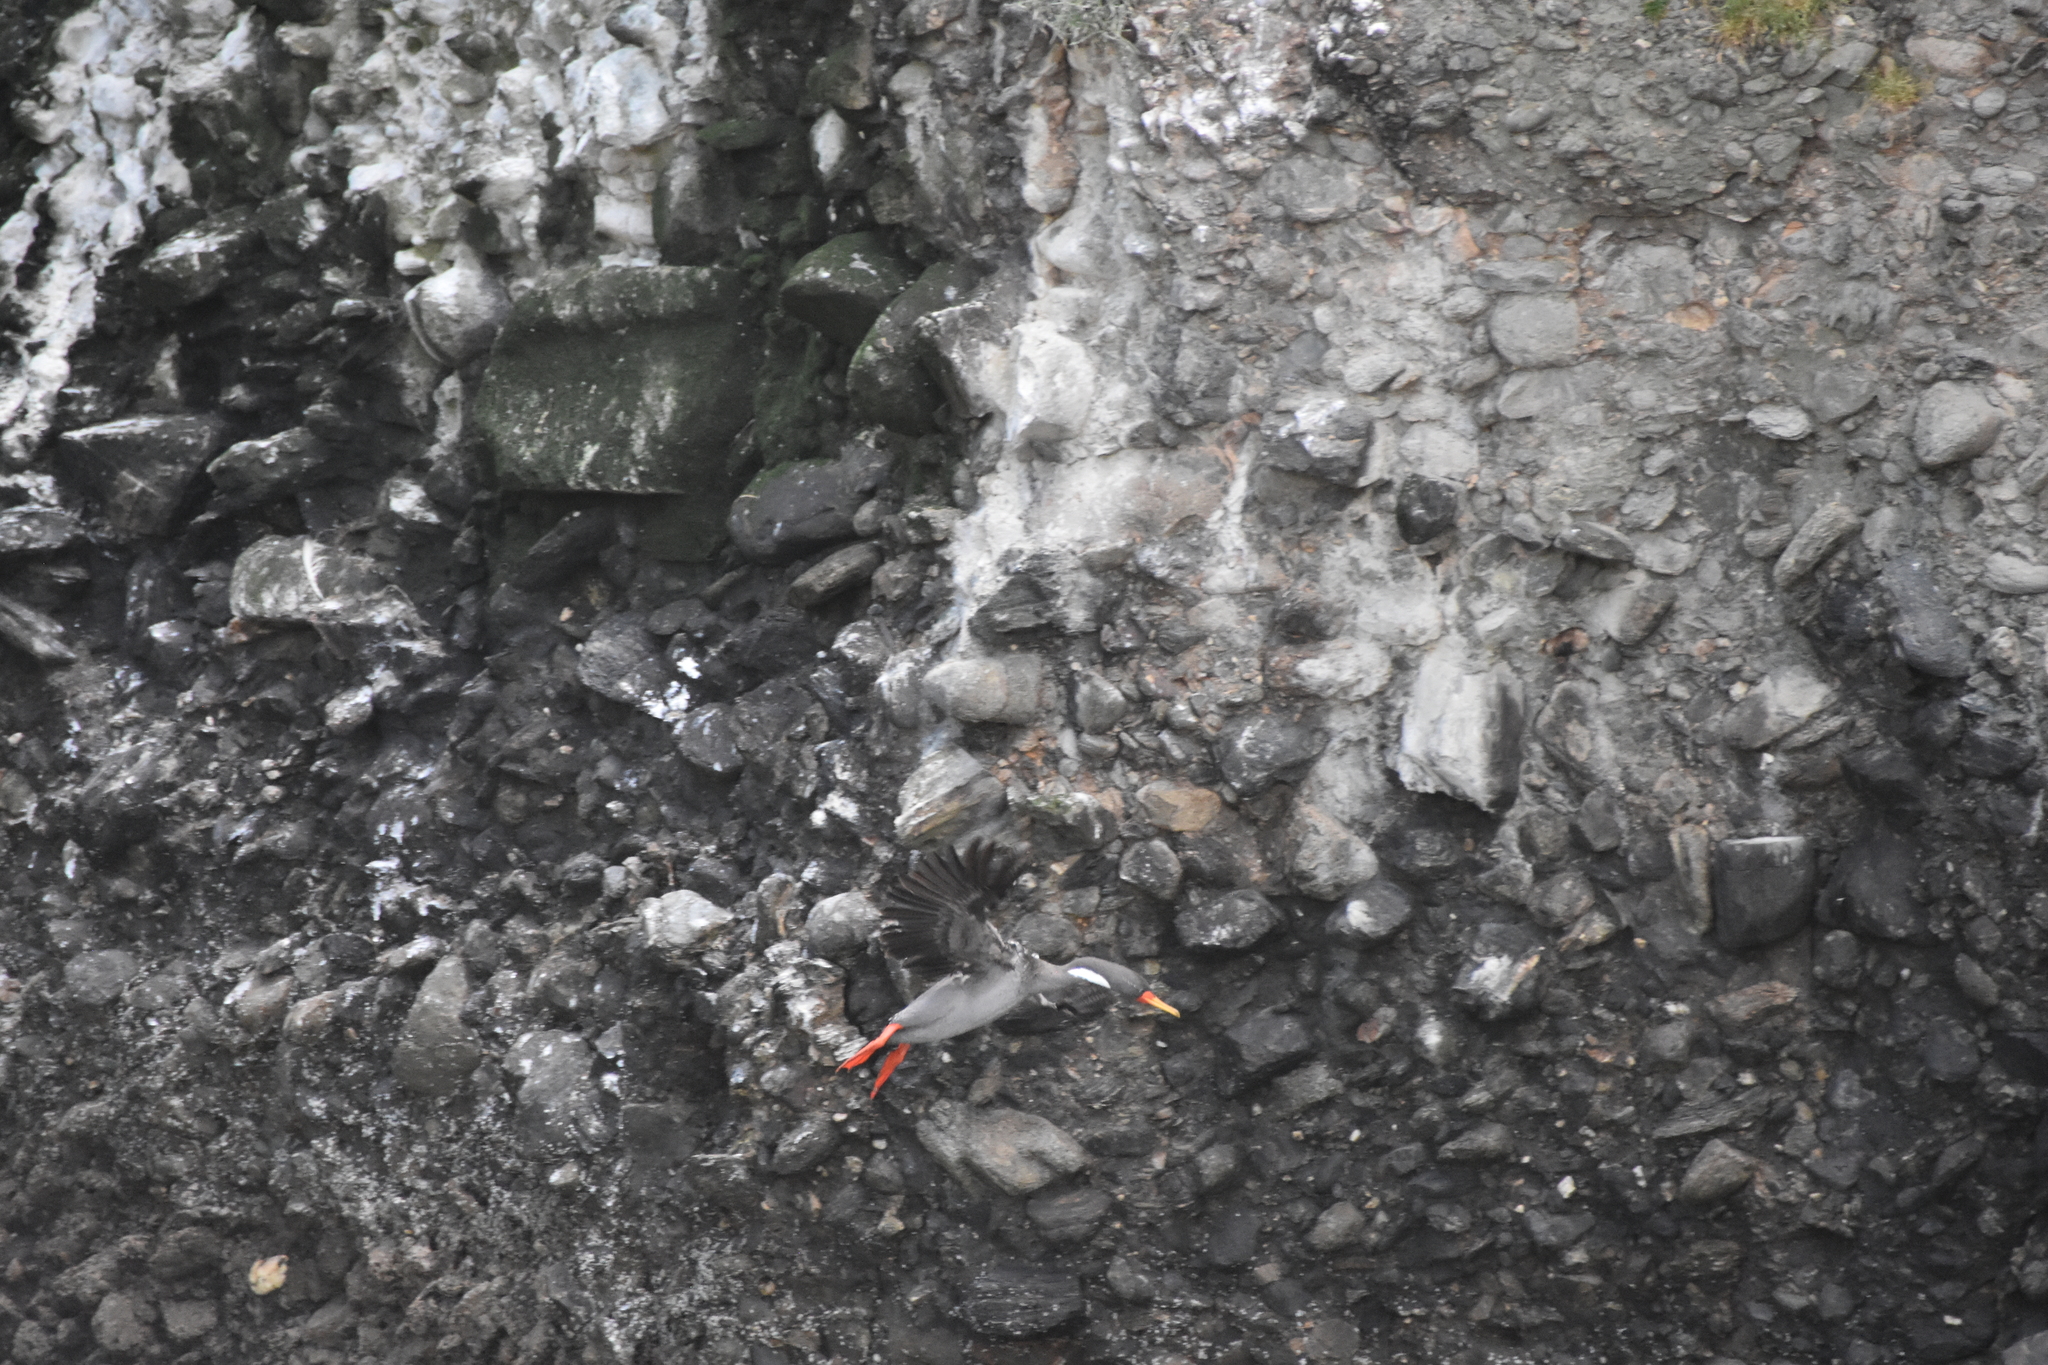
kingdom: Animalia
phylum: Chordata
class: Aves
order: Suliformes
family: Phalacrocoracidae
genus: Phalacrocorax
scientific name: Phalacrocorax gaimardi
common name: Red-legged cormorant
